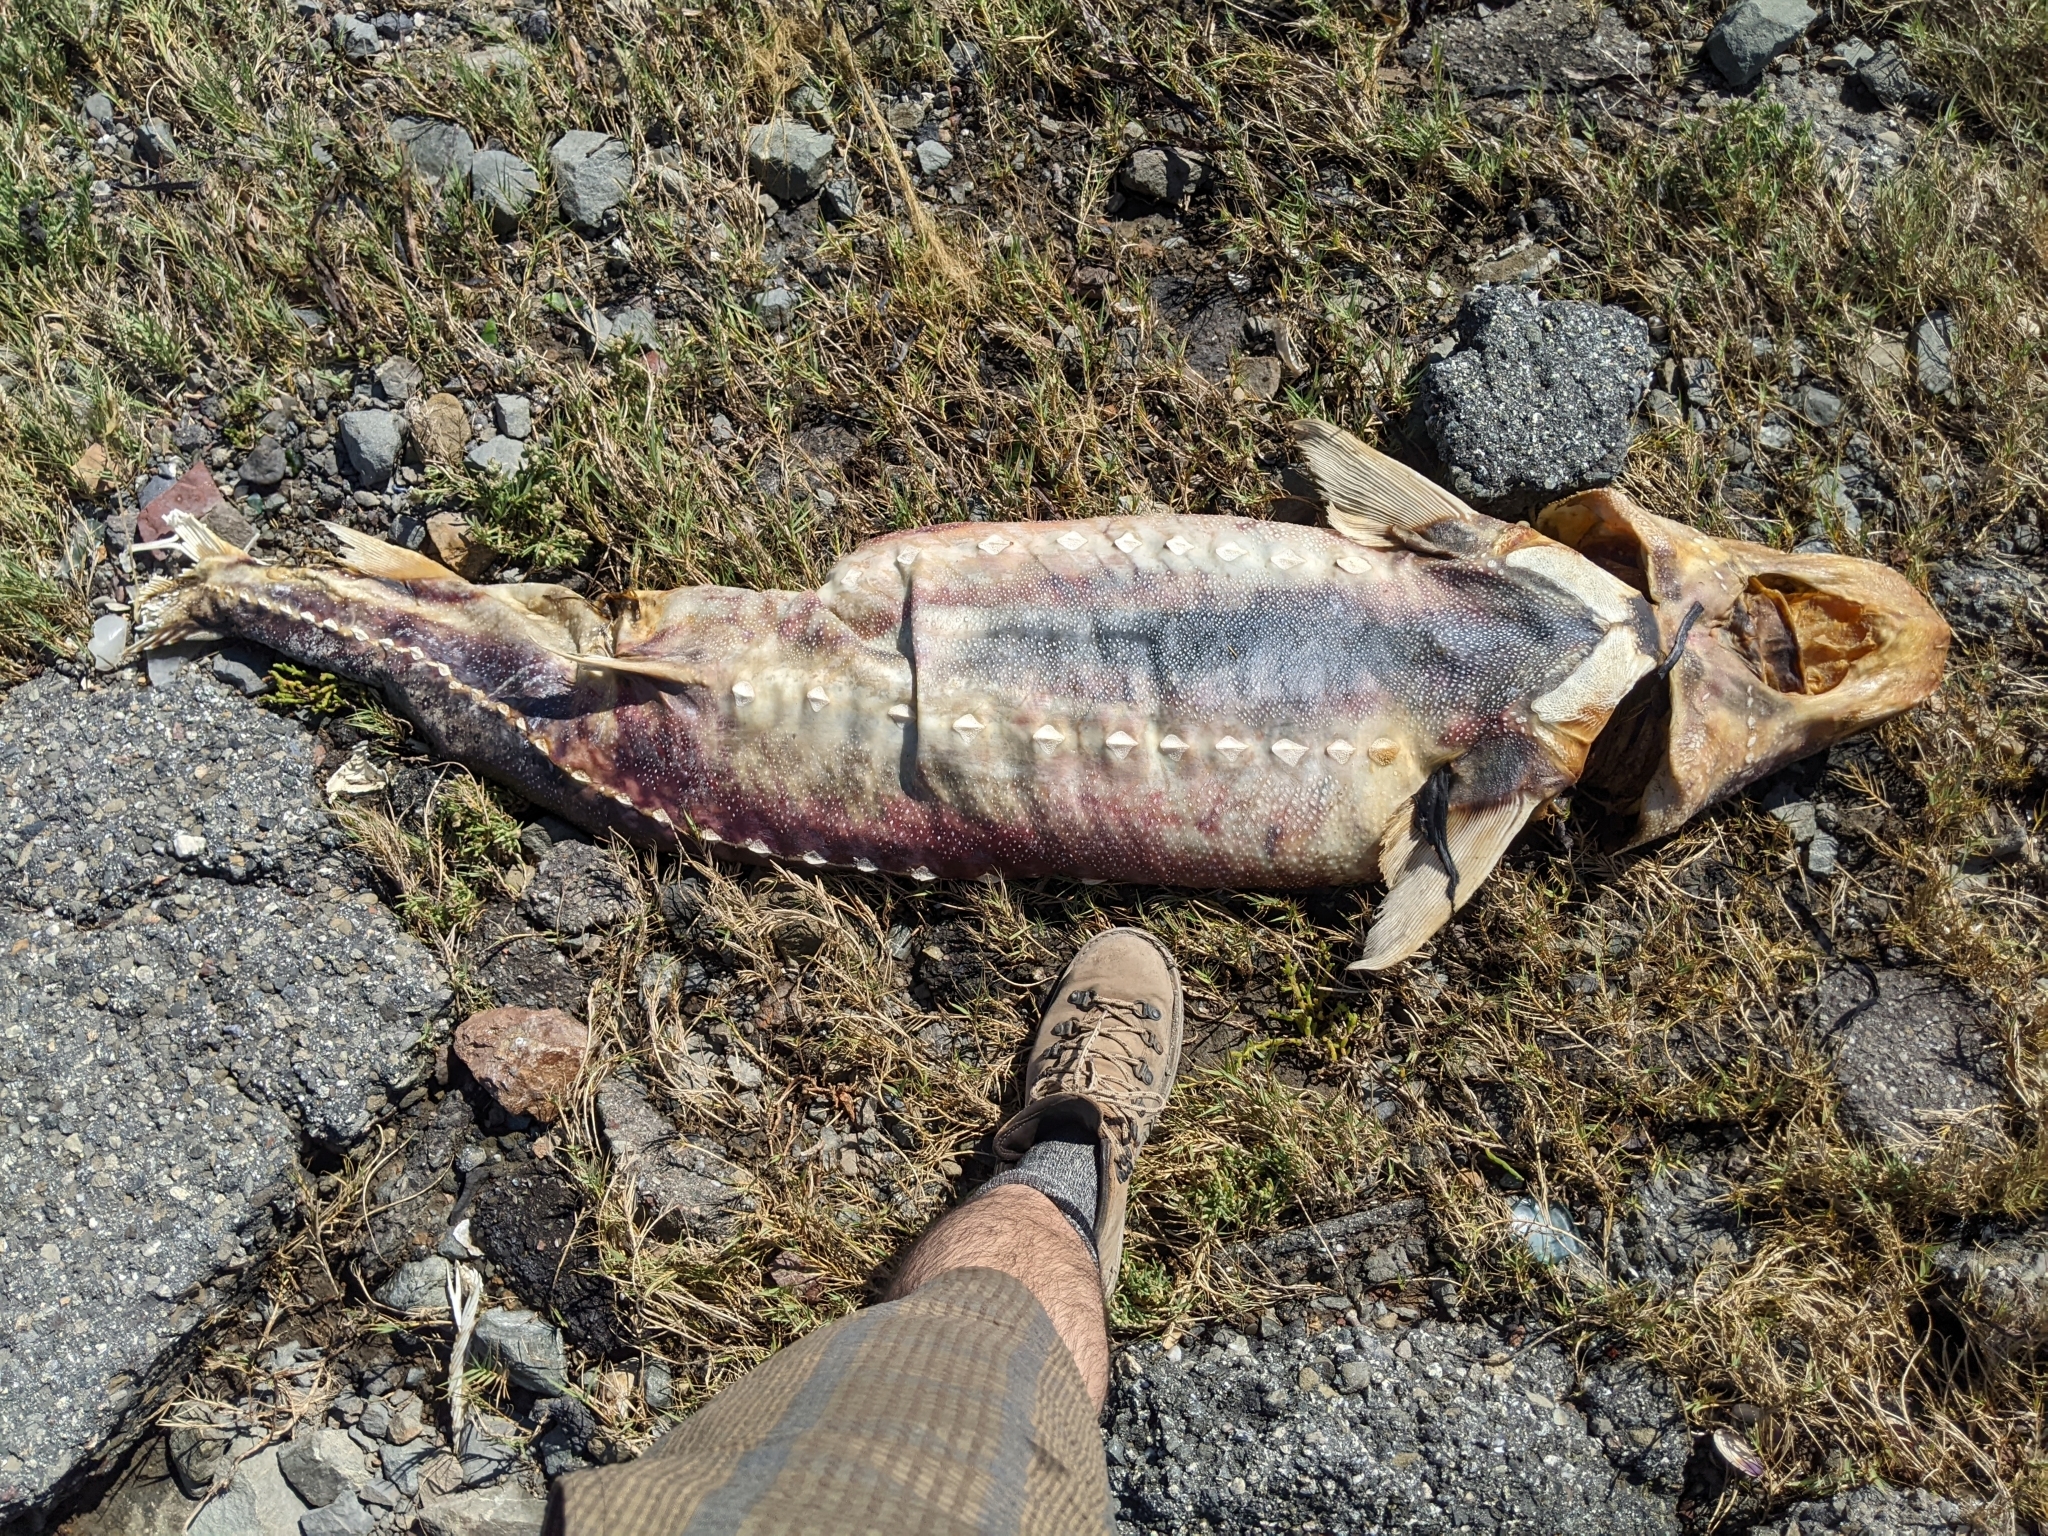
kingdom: Animalia
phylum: Chordata
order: Acipenseriformes
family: Acipenseridae
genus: Acipenser
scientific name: Acipenser transmontanus
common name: White sturgeon
